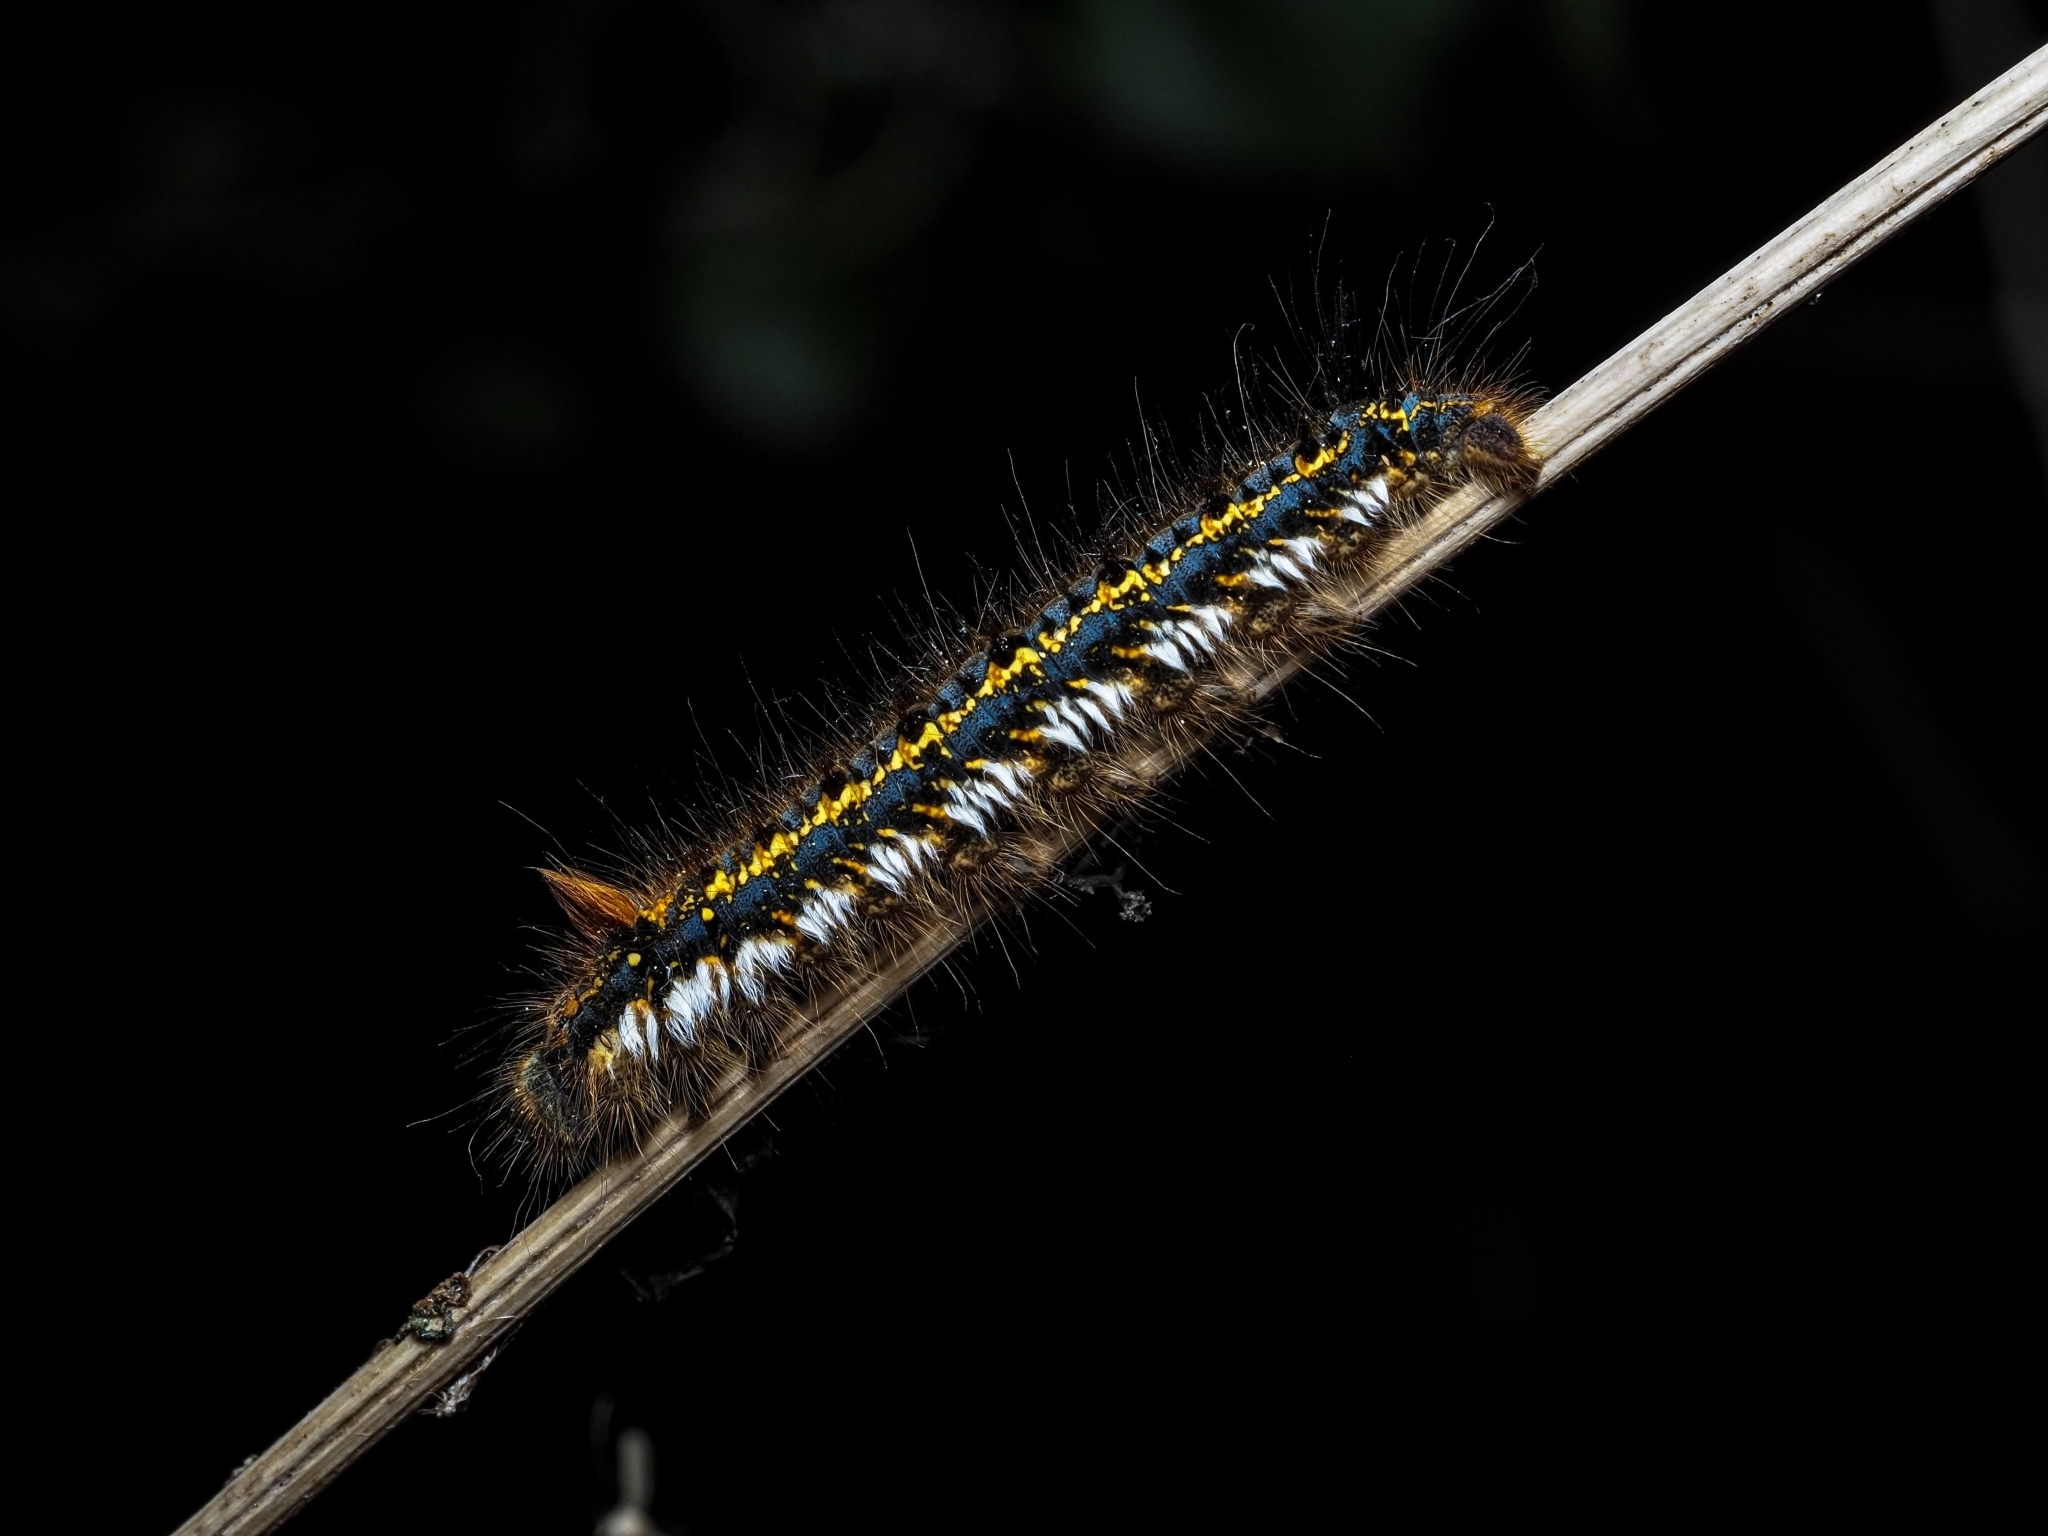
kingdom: Animalia
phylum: Arthropoda
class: Insecta
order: Lepidoptera
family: Lasiocampidae
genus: Euthrix
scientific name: Euthrix potatoria
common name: Drinker
